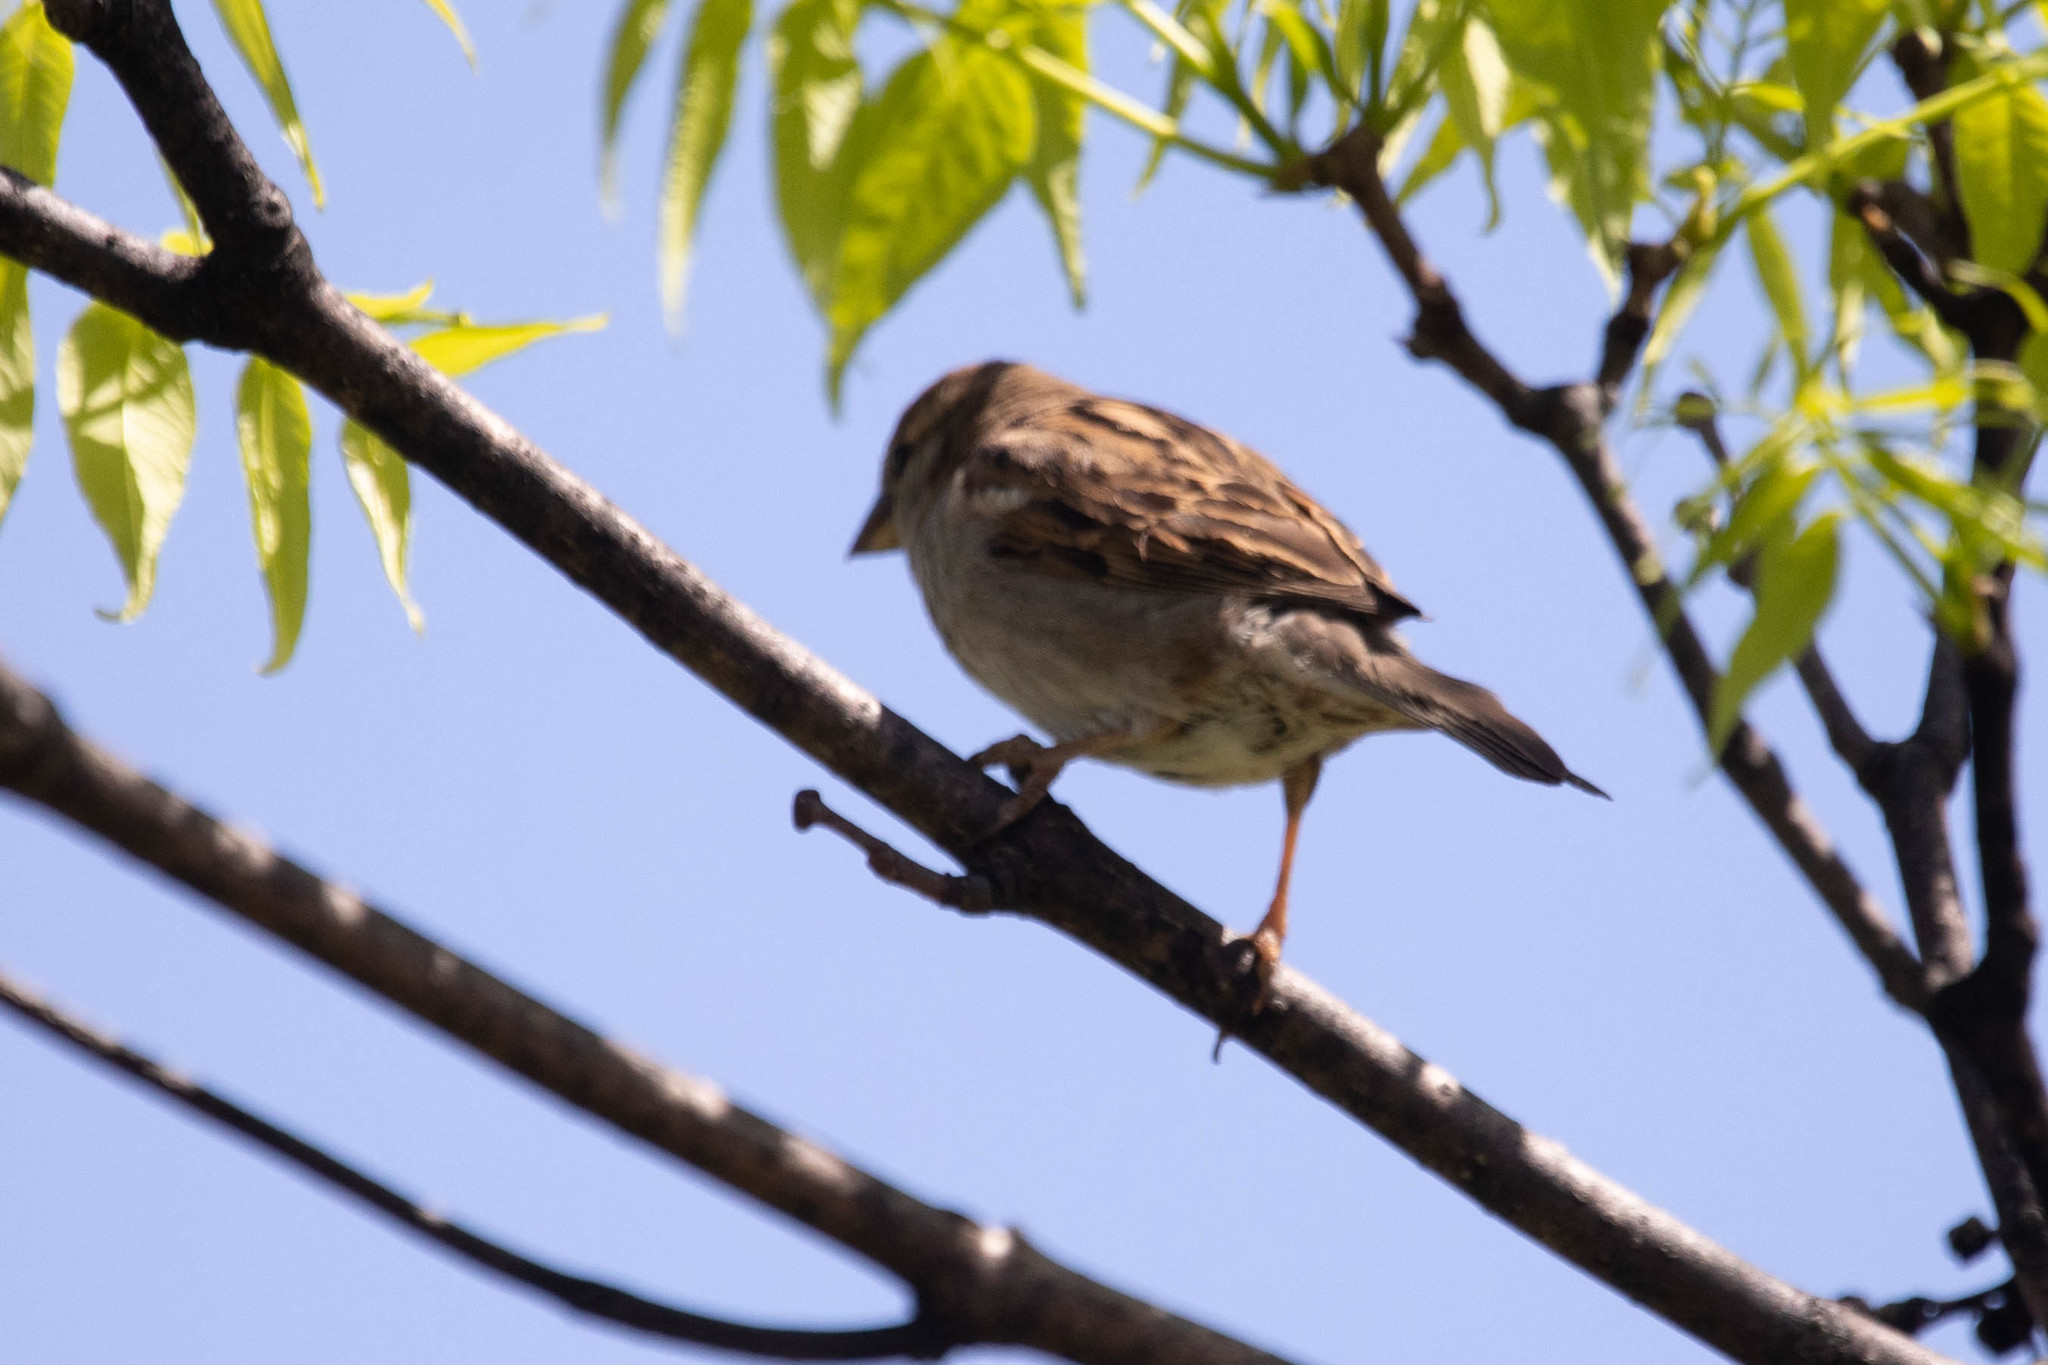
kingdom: Animalia
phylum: Chordata
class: Aves
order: Passeriformes
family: Passeridae
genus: Passer
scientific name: Passer domesticus
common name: House sparrow
